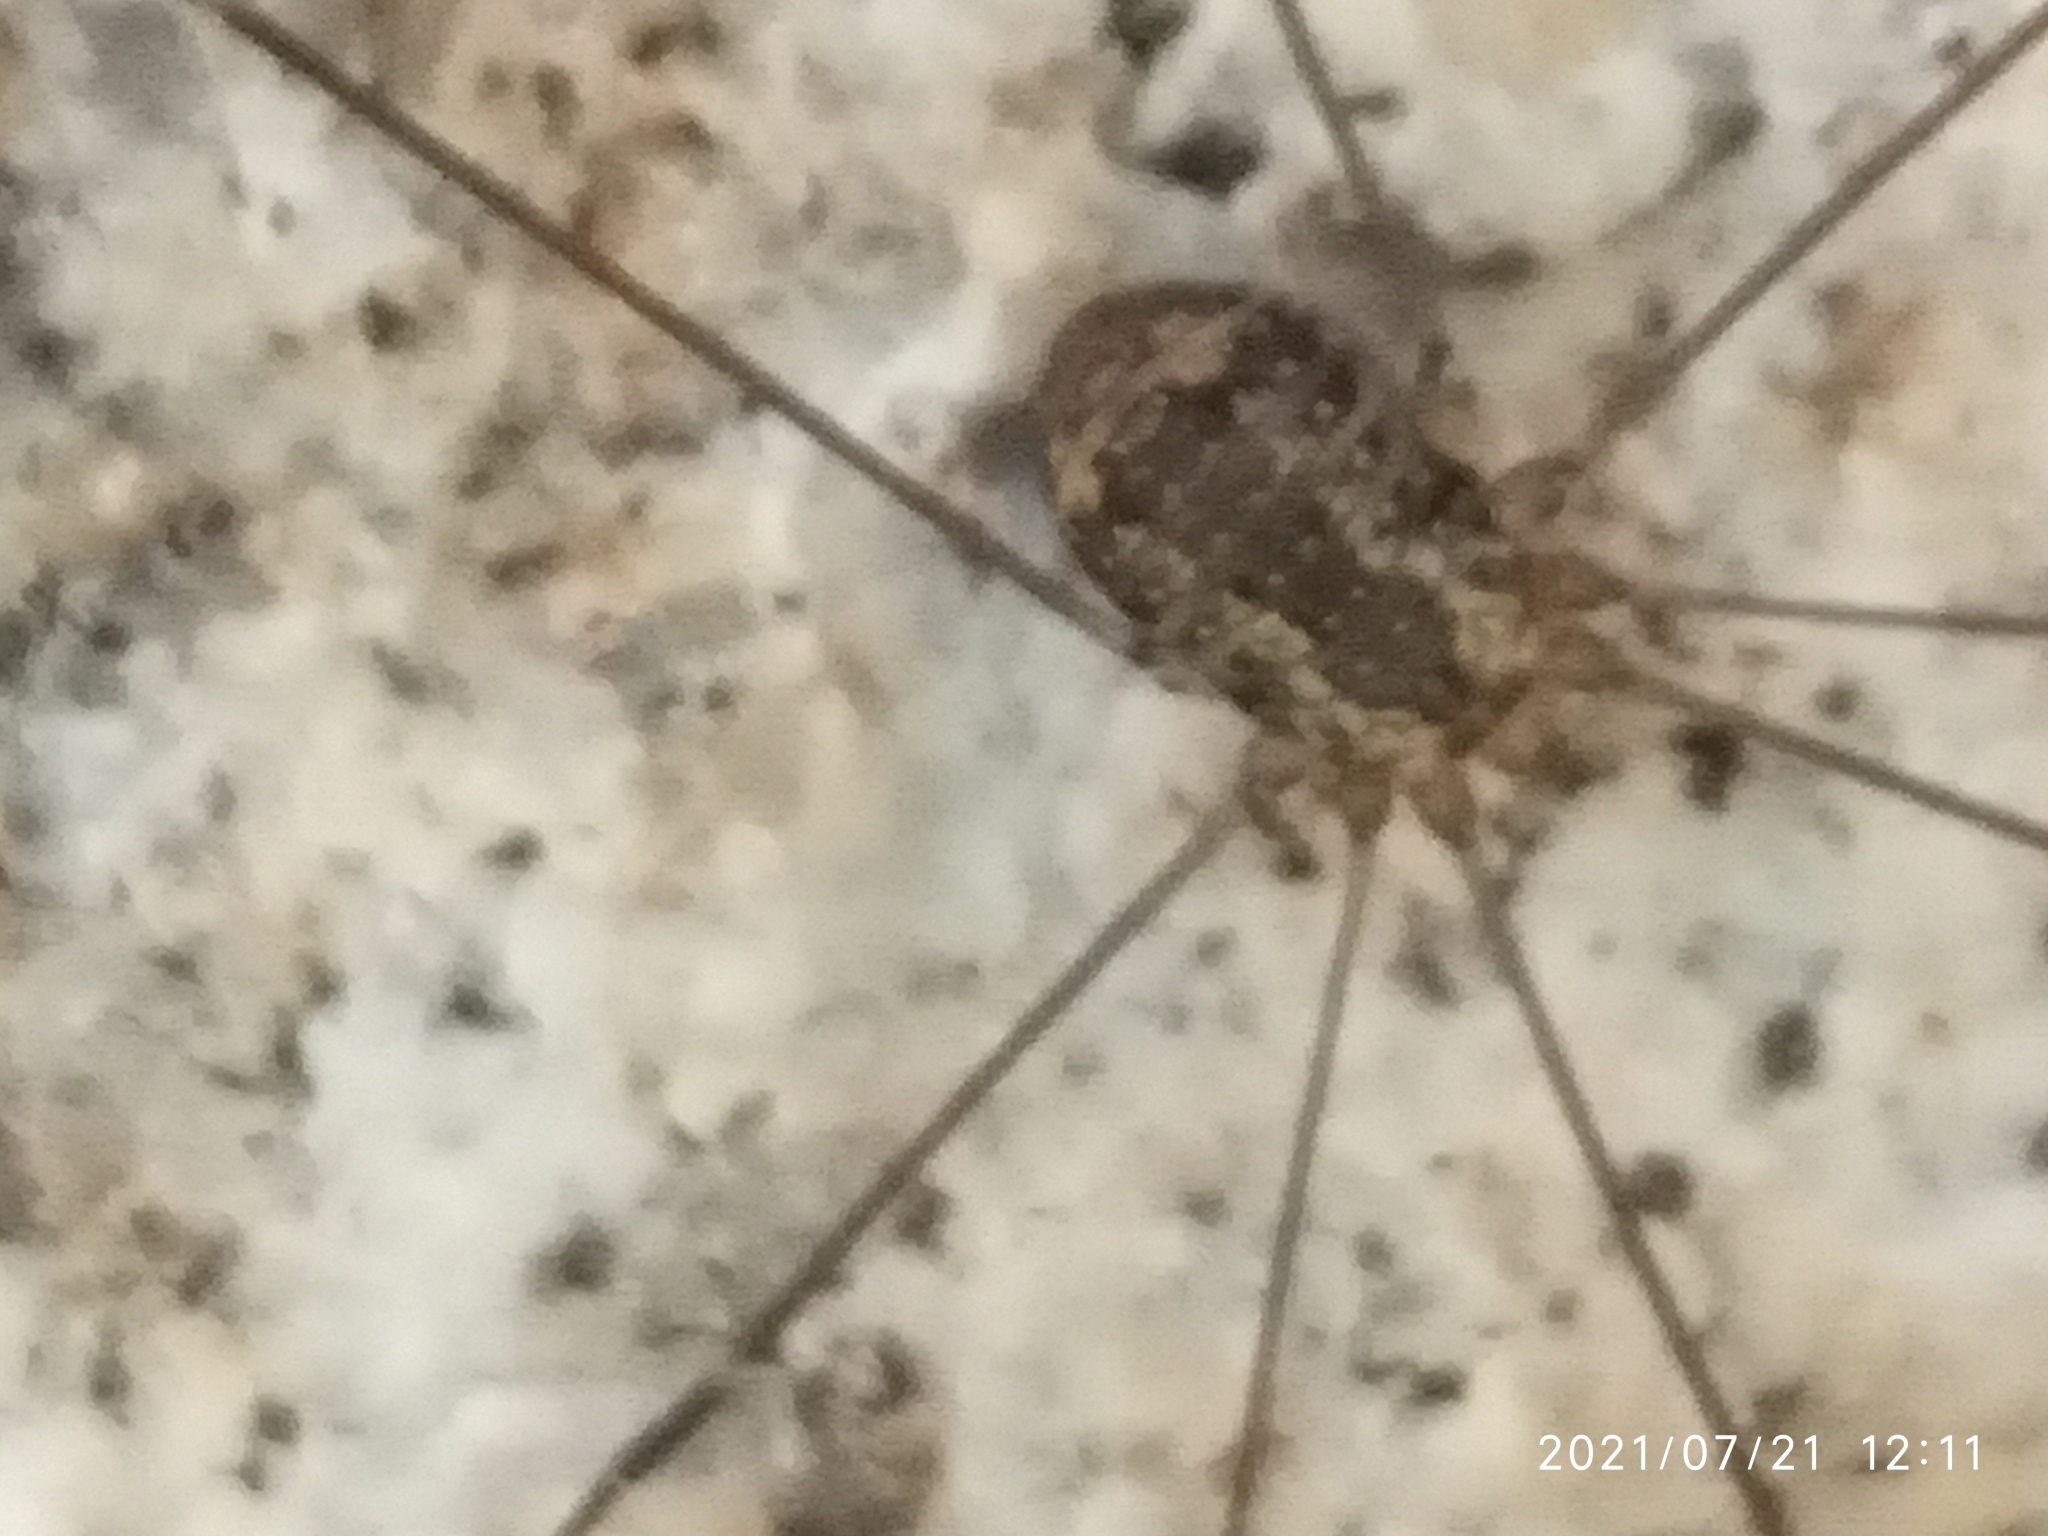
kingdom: Animalia
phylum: Arthropoda
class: Arachnida
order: Opiliones
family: Sclerosomatidae
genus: Leiobunum
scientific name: Leiobunum rotundum
